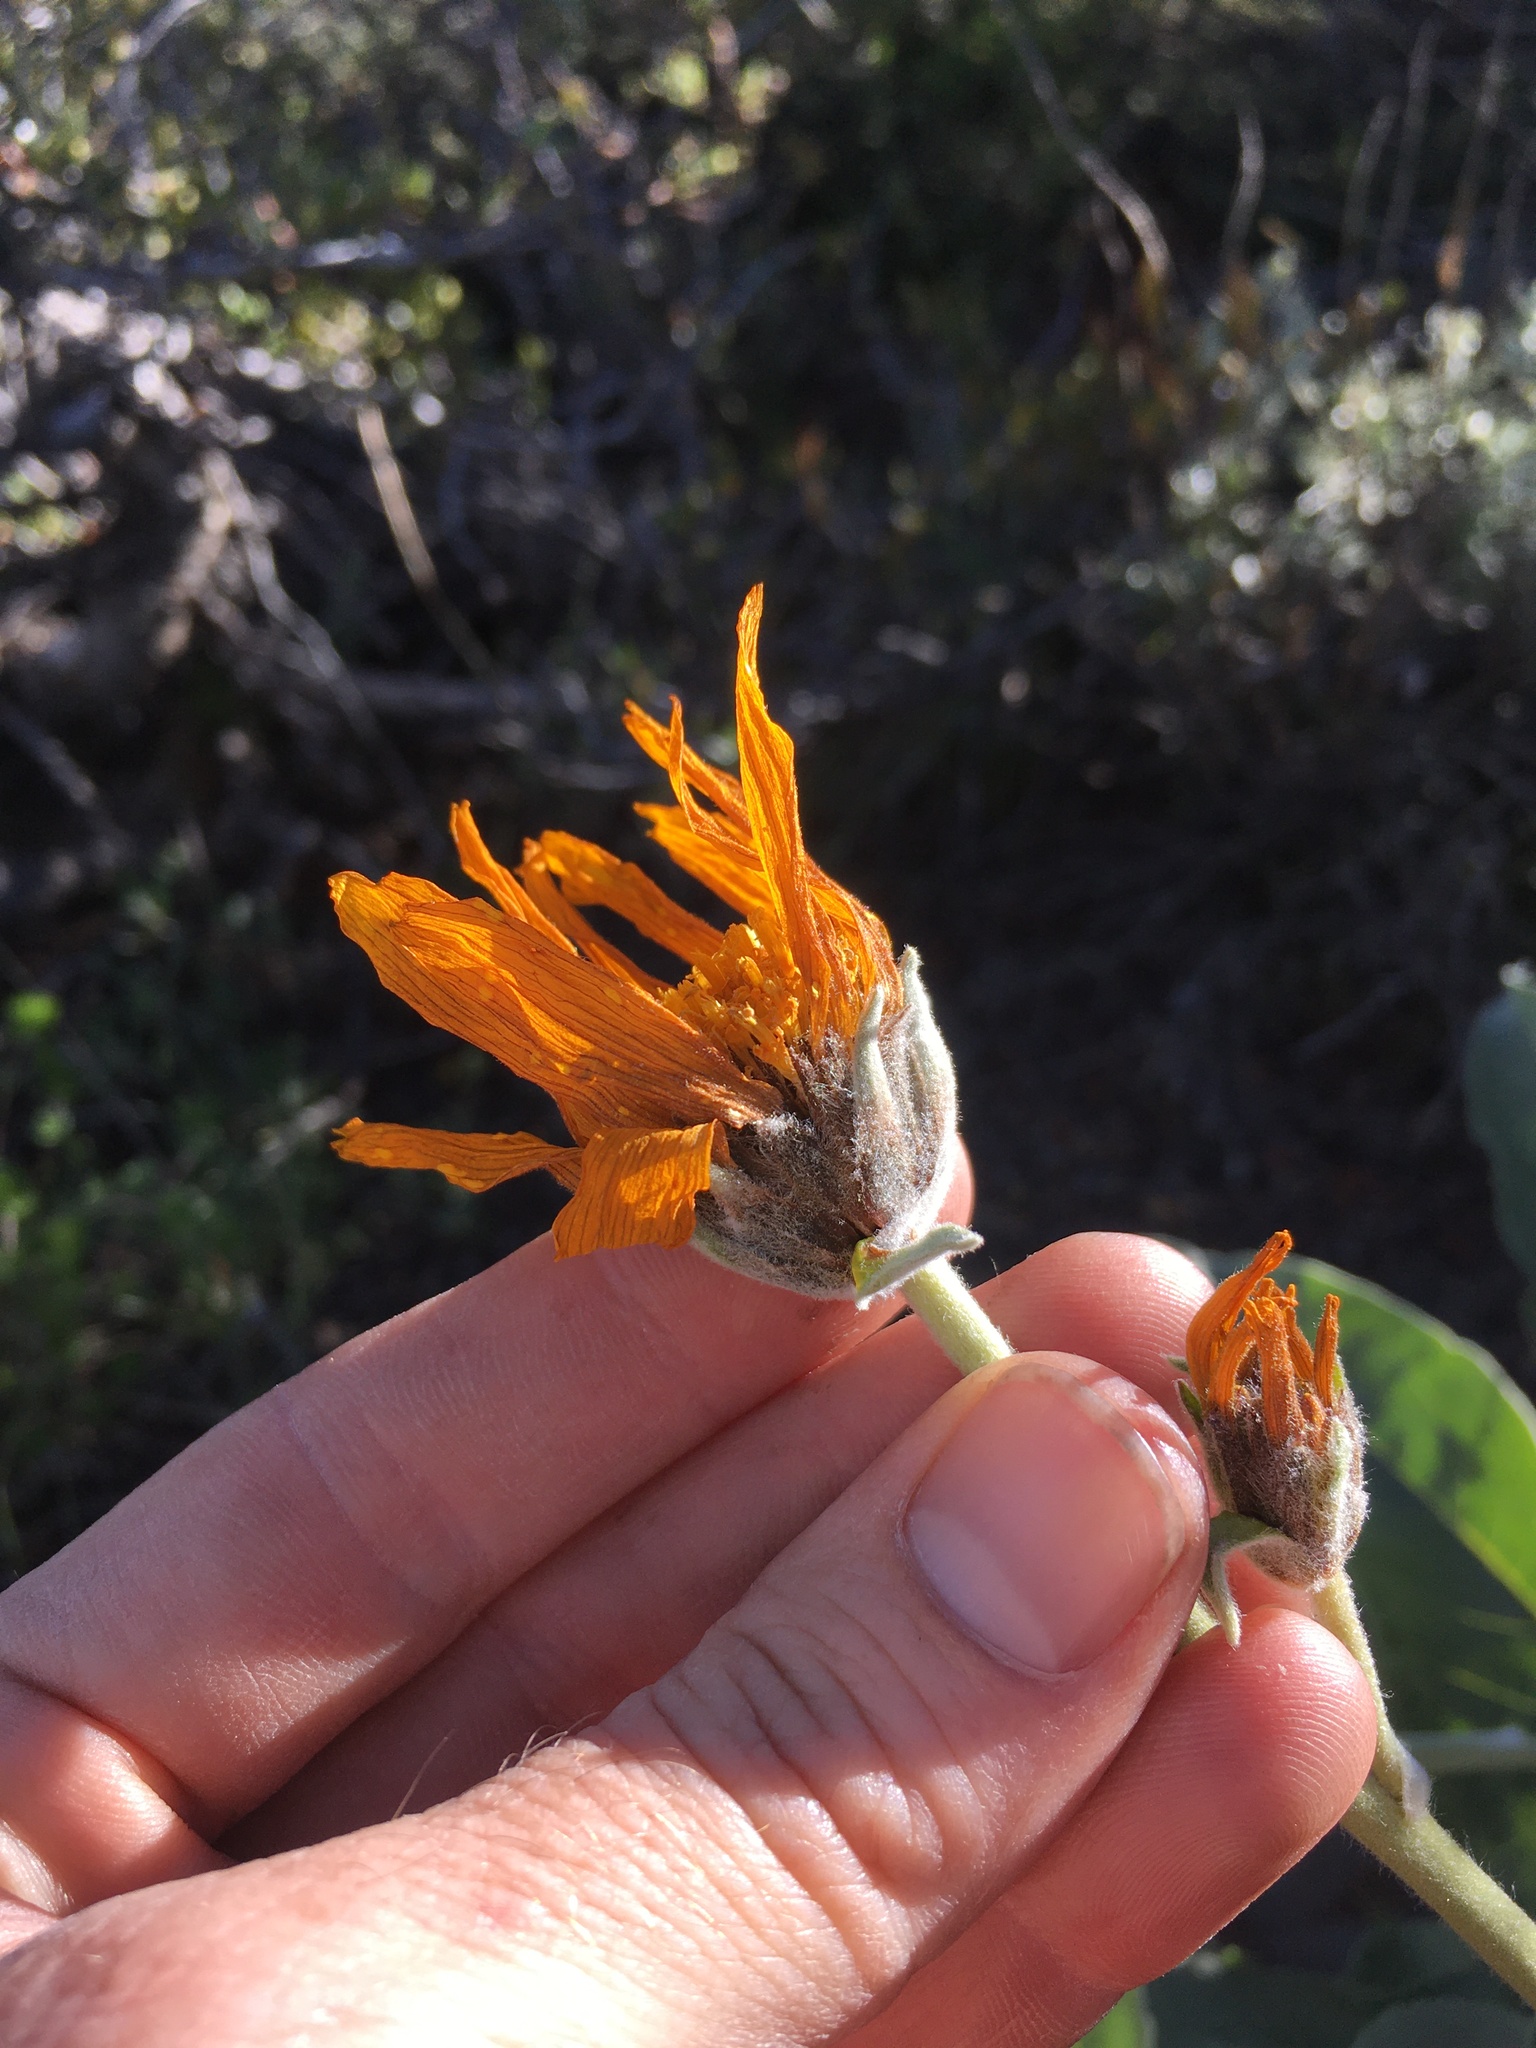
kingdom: Plantae
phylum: Tracheophyta
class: Magnoliopsida
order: Asterales
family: Asteraceae
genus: Wyethia
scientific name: Wyethia sagittata
